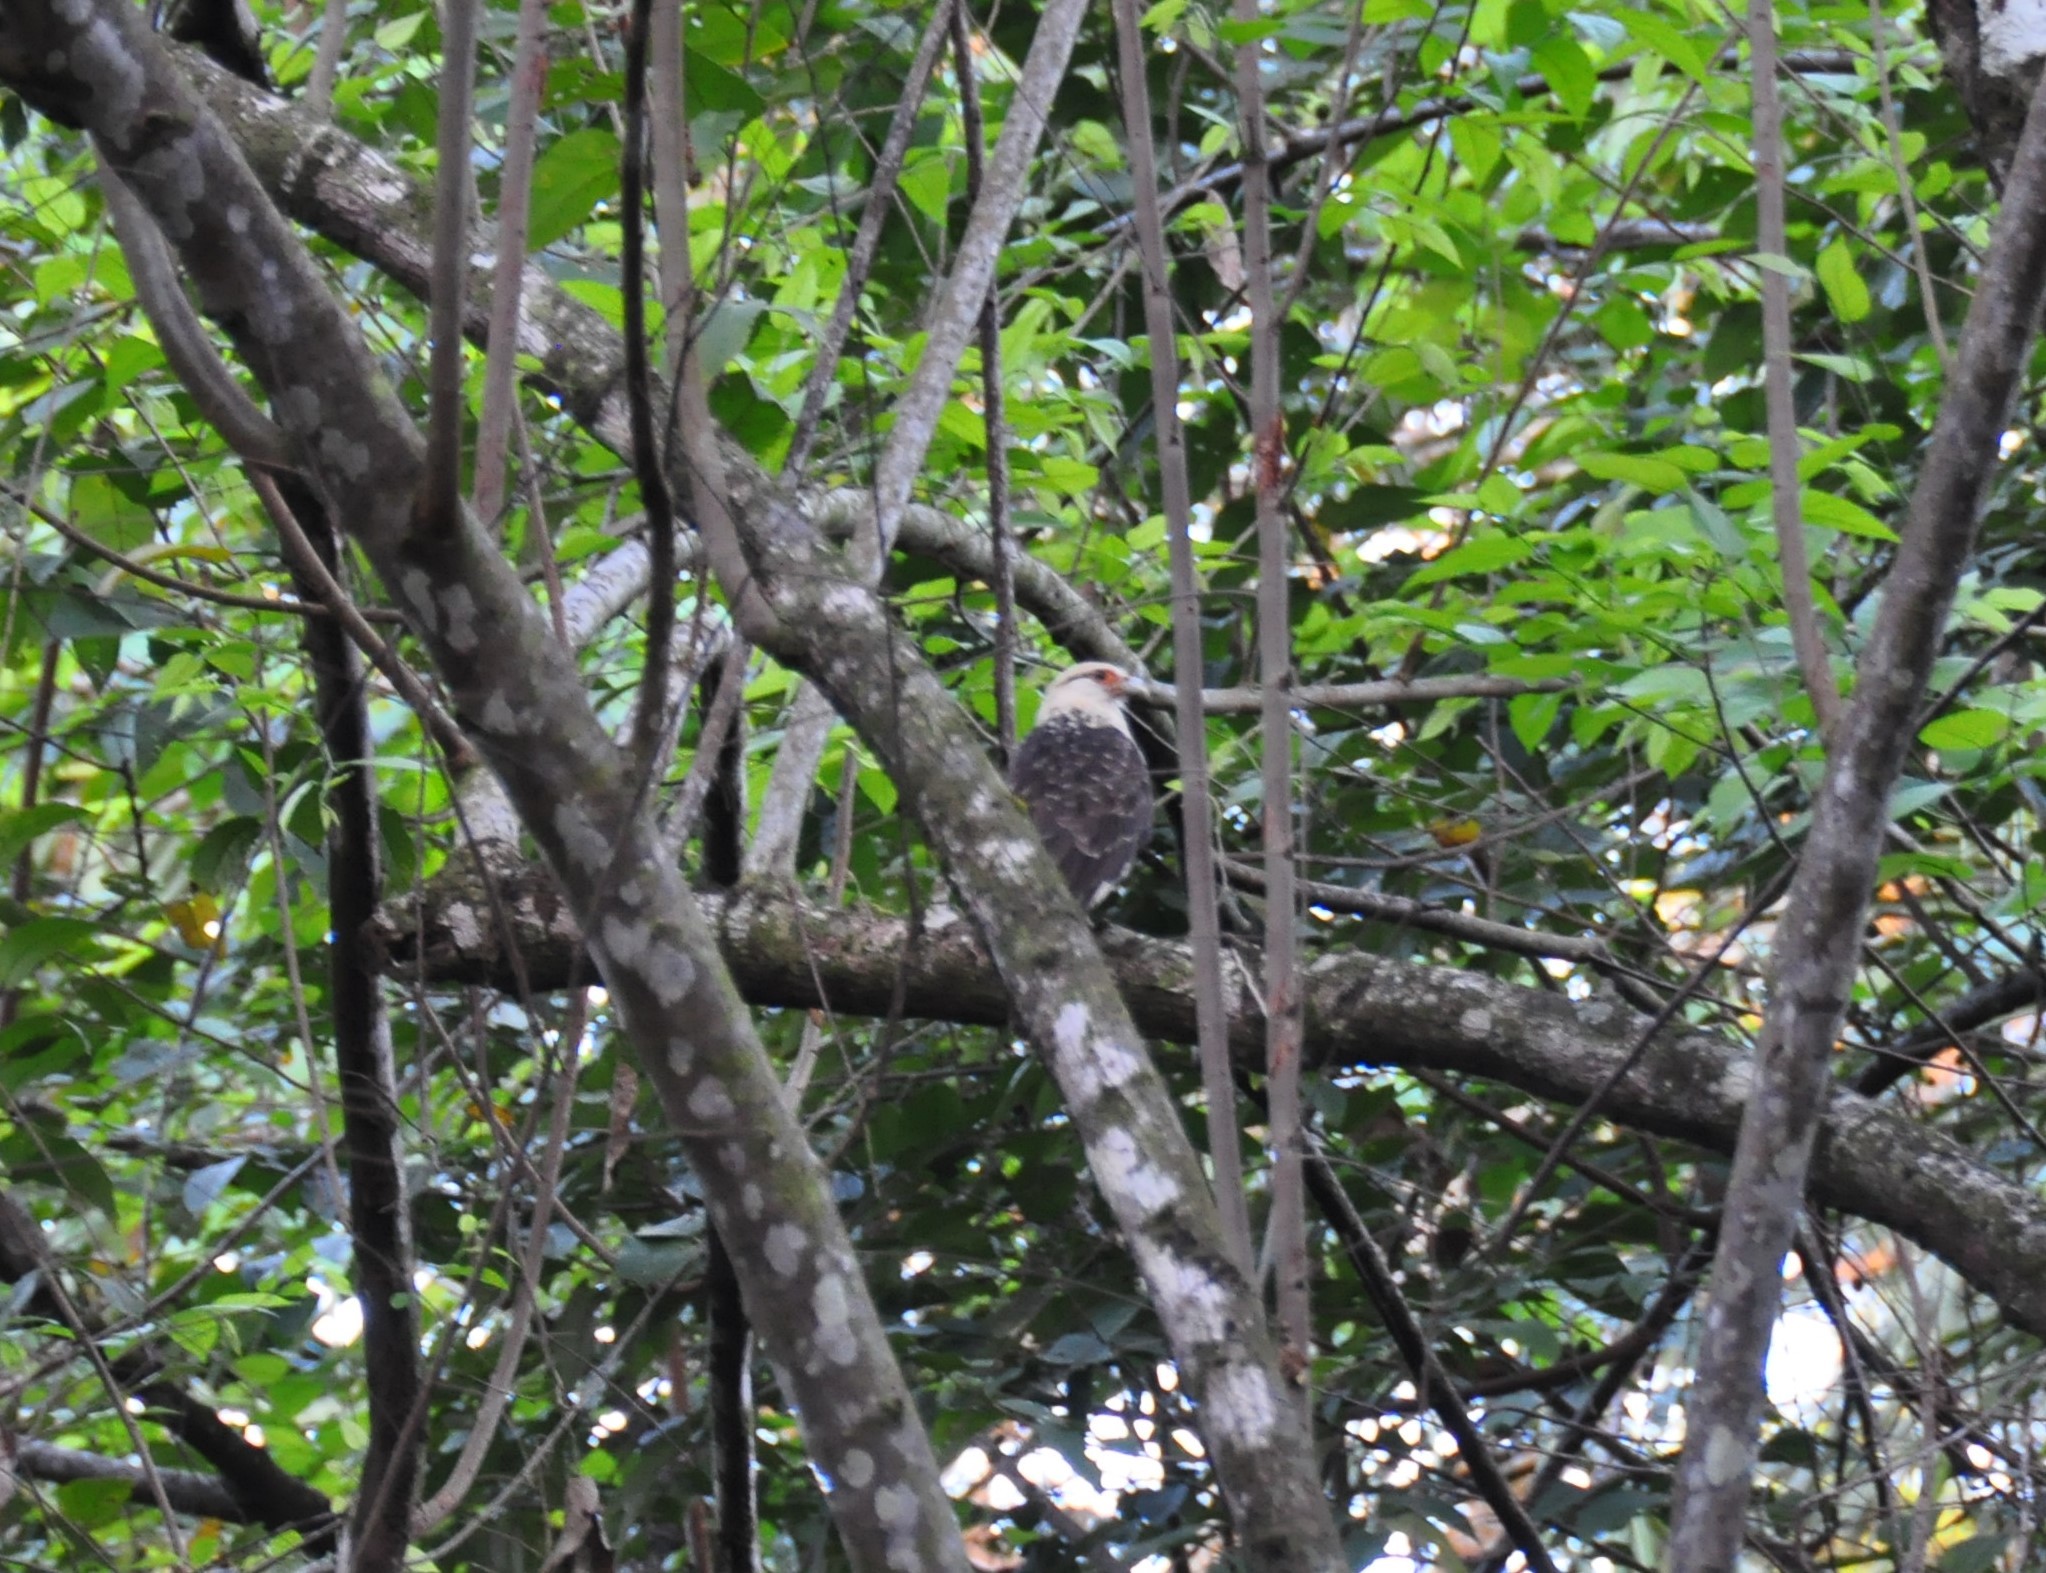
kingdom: Animalia
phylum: Chordata
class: Aves
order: Falconiformes
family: Falconidae
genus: Daptrius
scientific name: Daptrius
